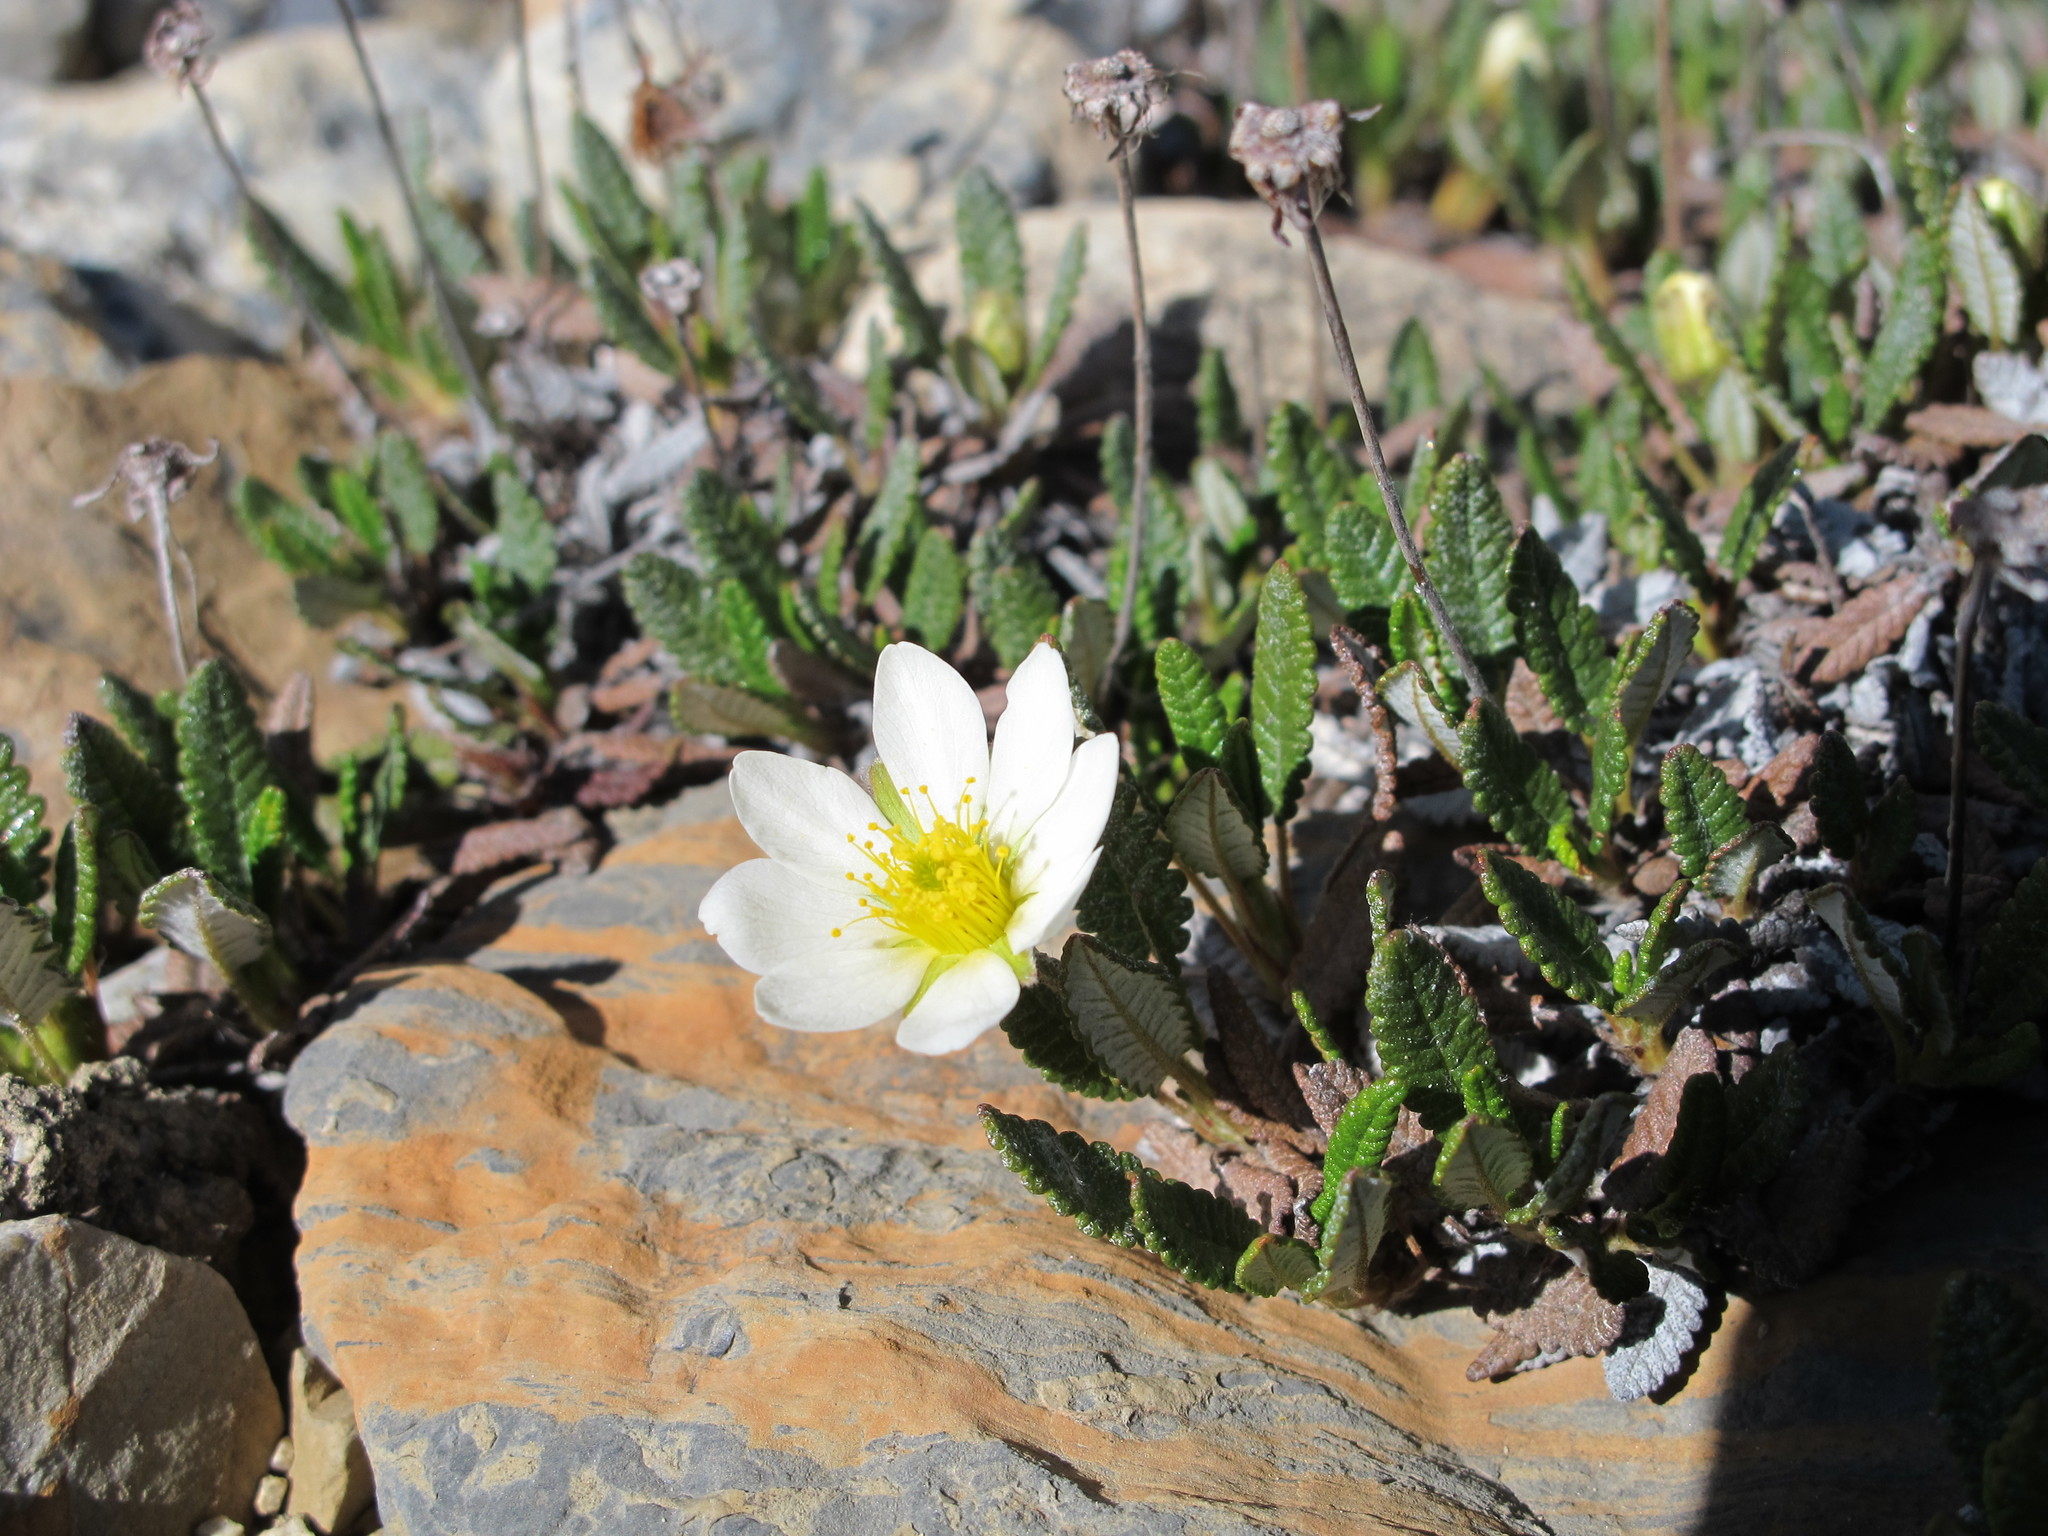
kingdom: Plantae
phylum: Tracheophyta
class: Magnoliopsida
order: Rosales
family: Rosaceae
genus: Dryas
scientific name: Dryas octopetala
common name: Eight-petal mountain-avens
